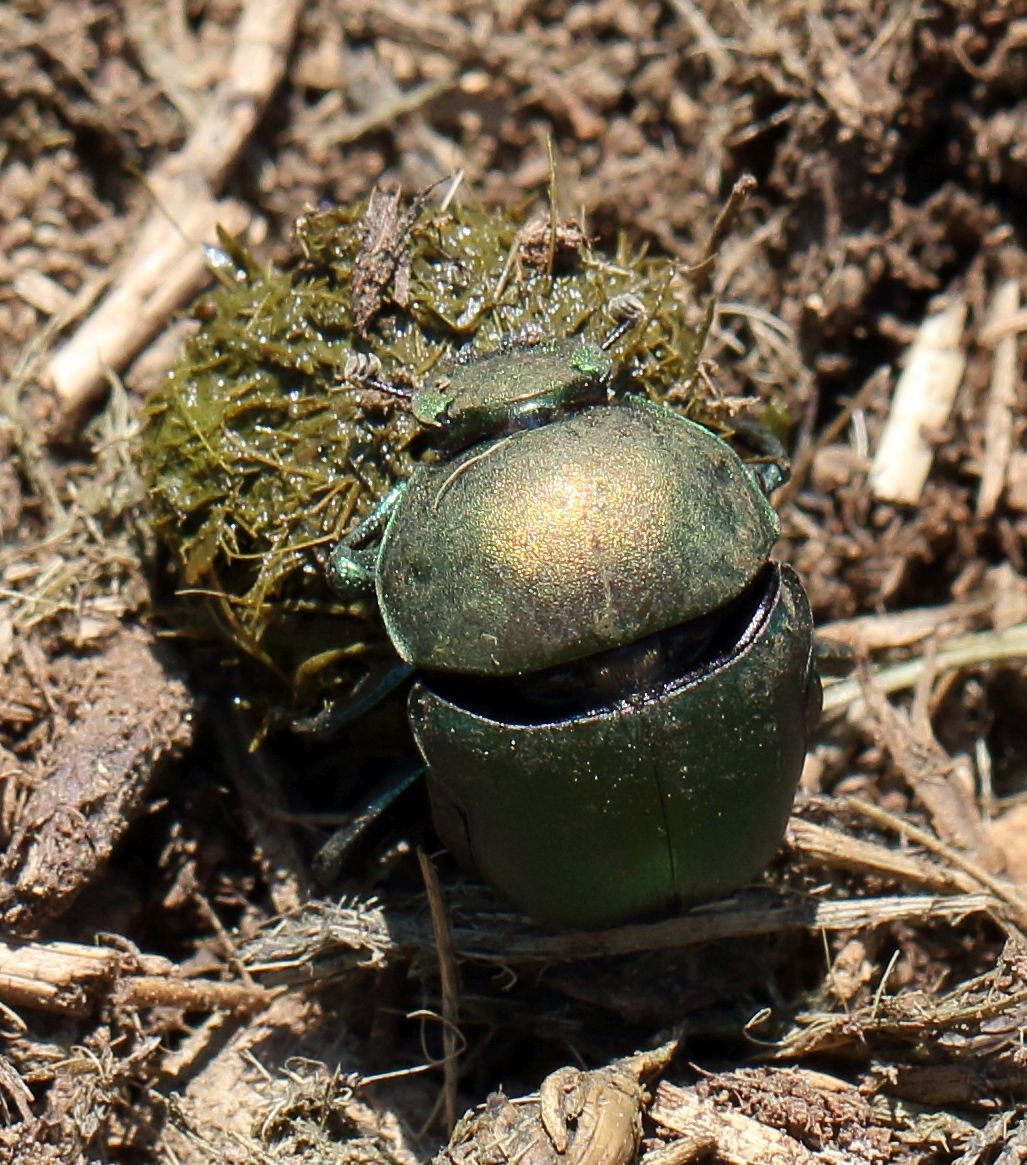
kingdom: Animalia
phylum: Arthropoda
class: Insecta
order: Coleoptera
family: Scarabaeidae
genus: Garreta
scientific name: Garreta wahlbergi
